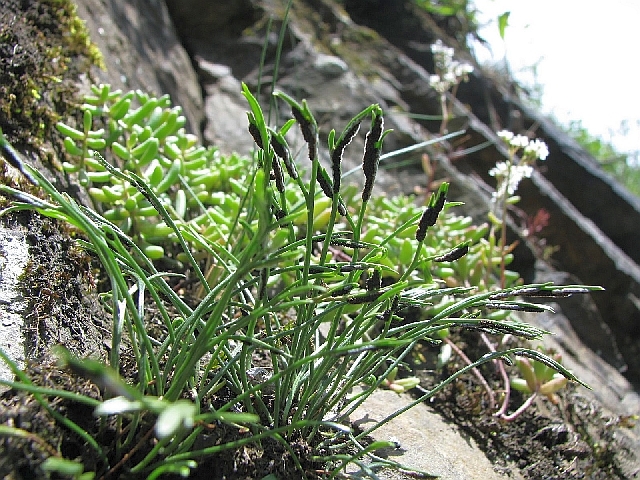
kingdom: Plantae
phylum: Tracheophyta
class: Polypodiopsida
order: Polypodiales
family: Aspleniaceae
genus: Asplenium
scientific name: Asplenium septentrionale
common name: Forked spleenwort
